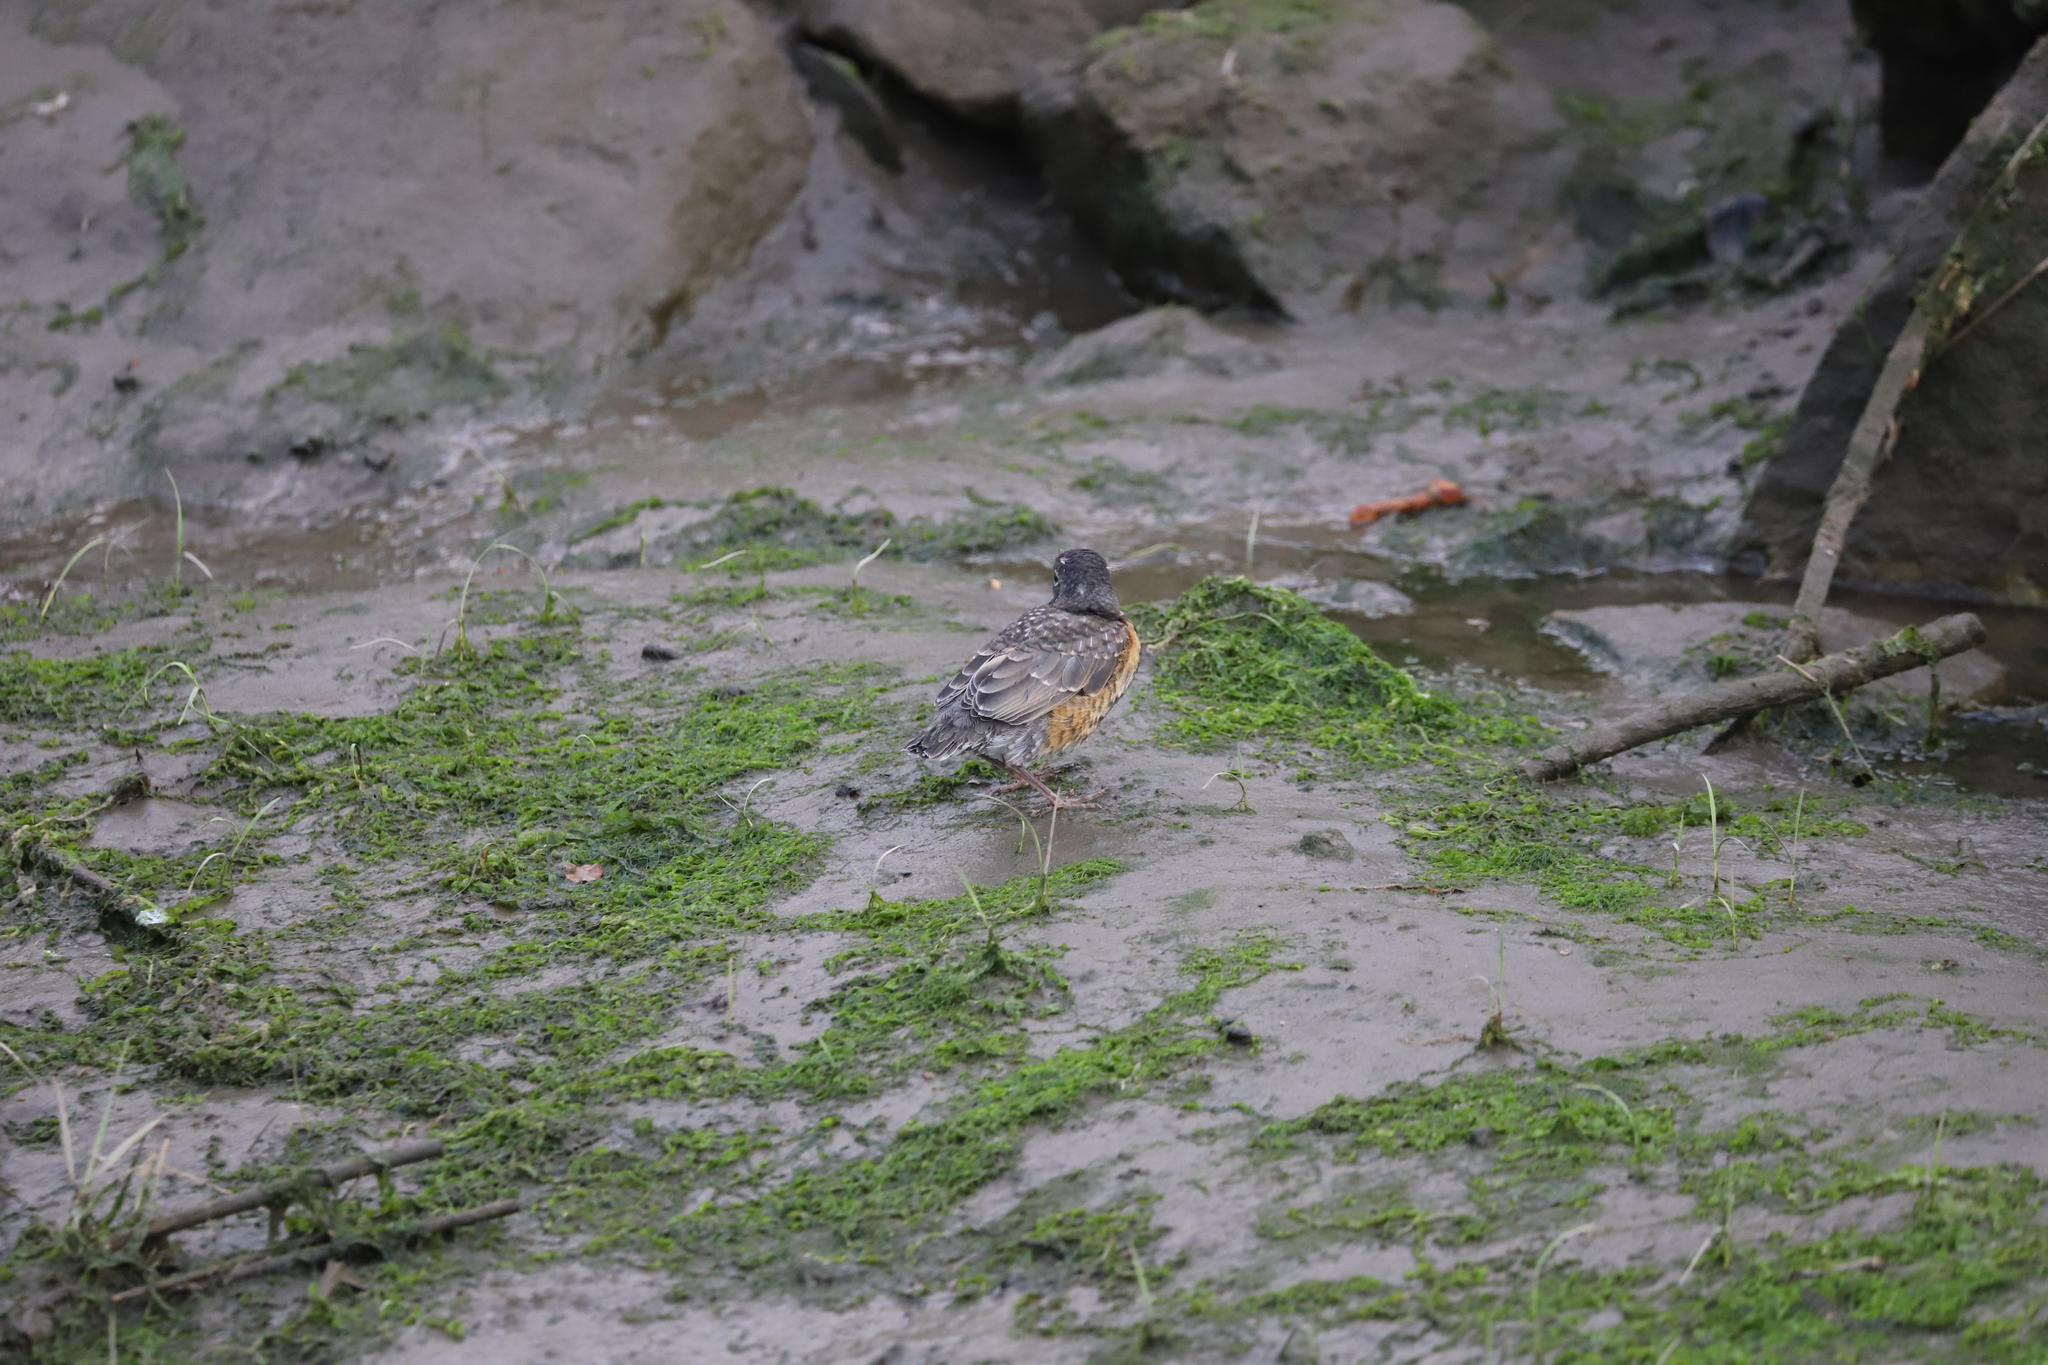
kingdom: Animalia
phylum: Chordata
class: Aves
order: Passeriformes
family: Turdidae
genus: Turdus
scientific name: Turdus migratorius
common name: American robin
